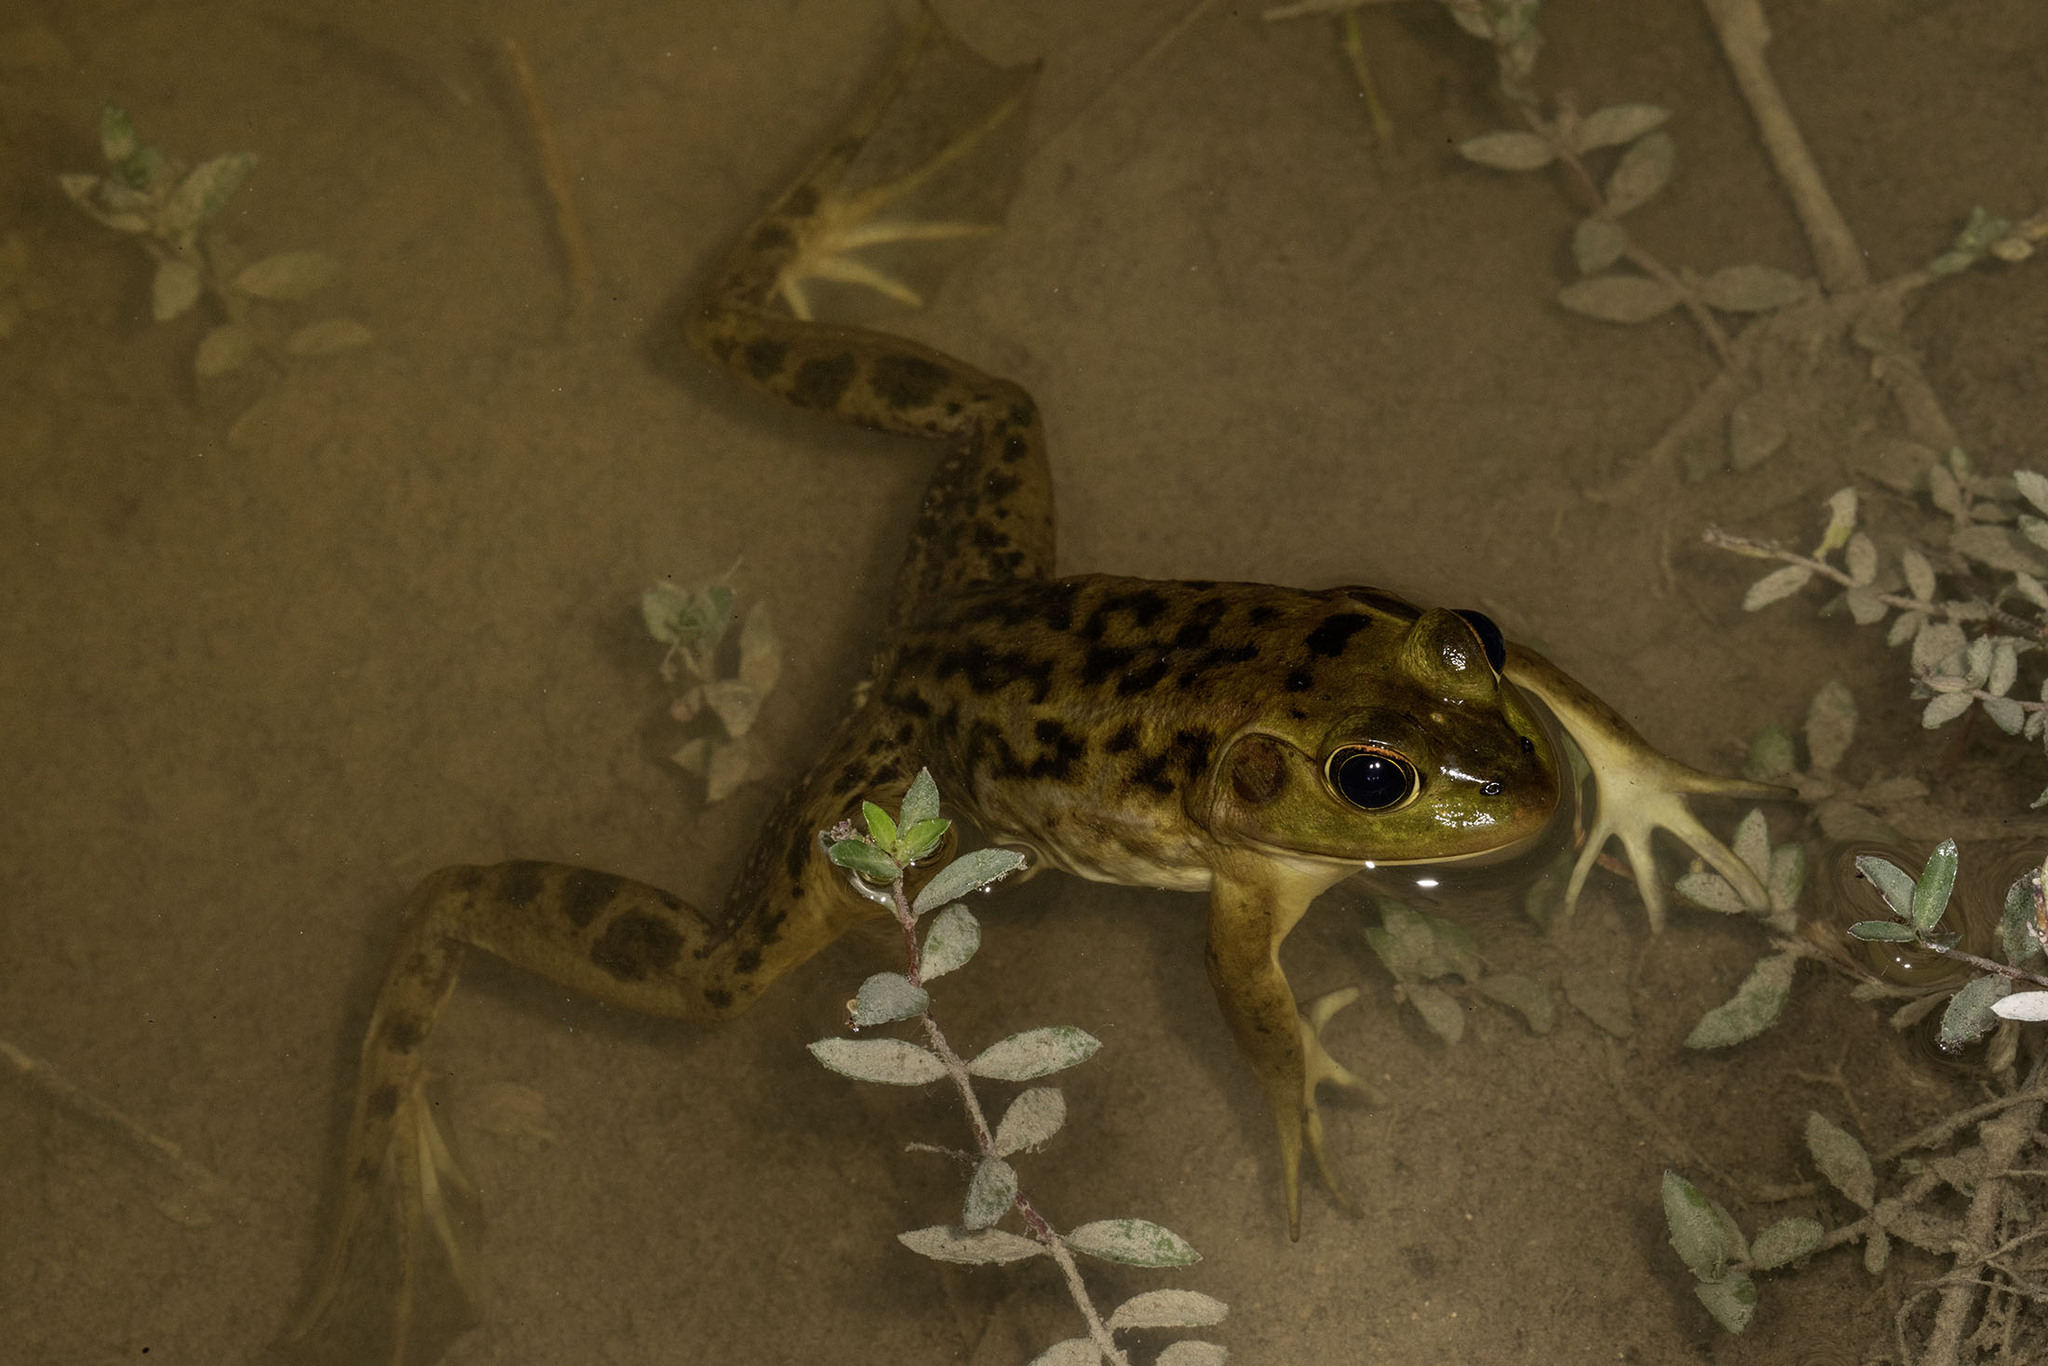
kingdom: Animalia
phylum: Chordata
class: Amphibia
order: Anura
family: Ranidae
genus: Lithobates
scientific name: Lithobates grylio
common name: Pig frog
